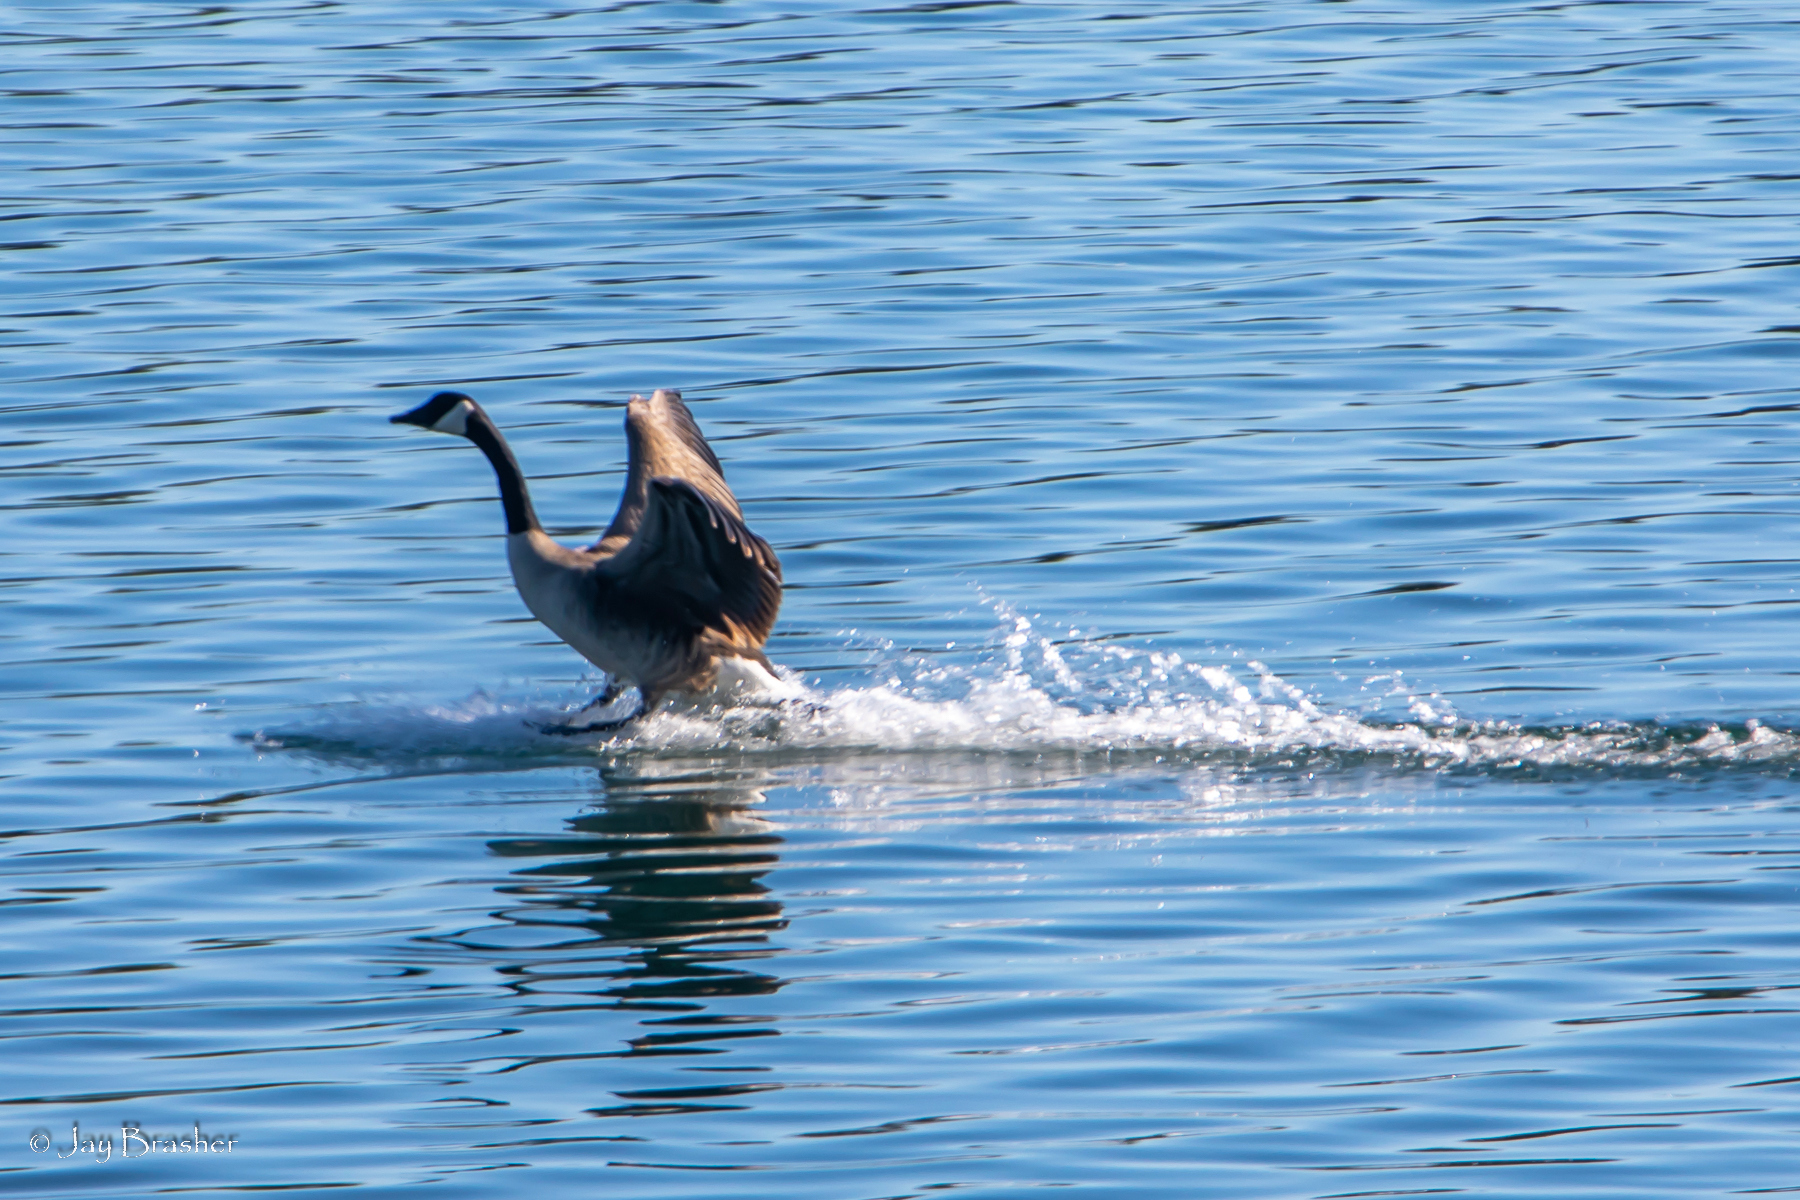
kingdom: Animalia
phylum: Chordata
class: Aves
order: Anseriformes
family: Anatidae
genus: Branta
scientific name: Branta canadensis
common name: Canada goose
